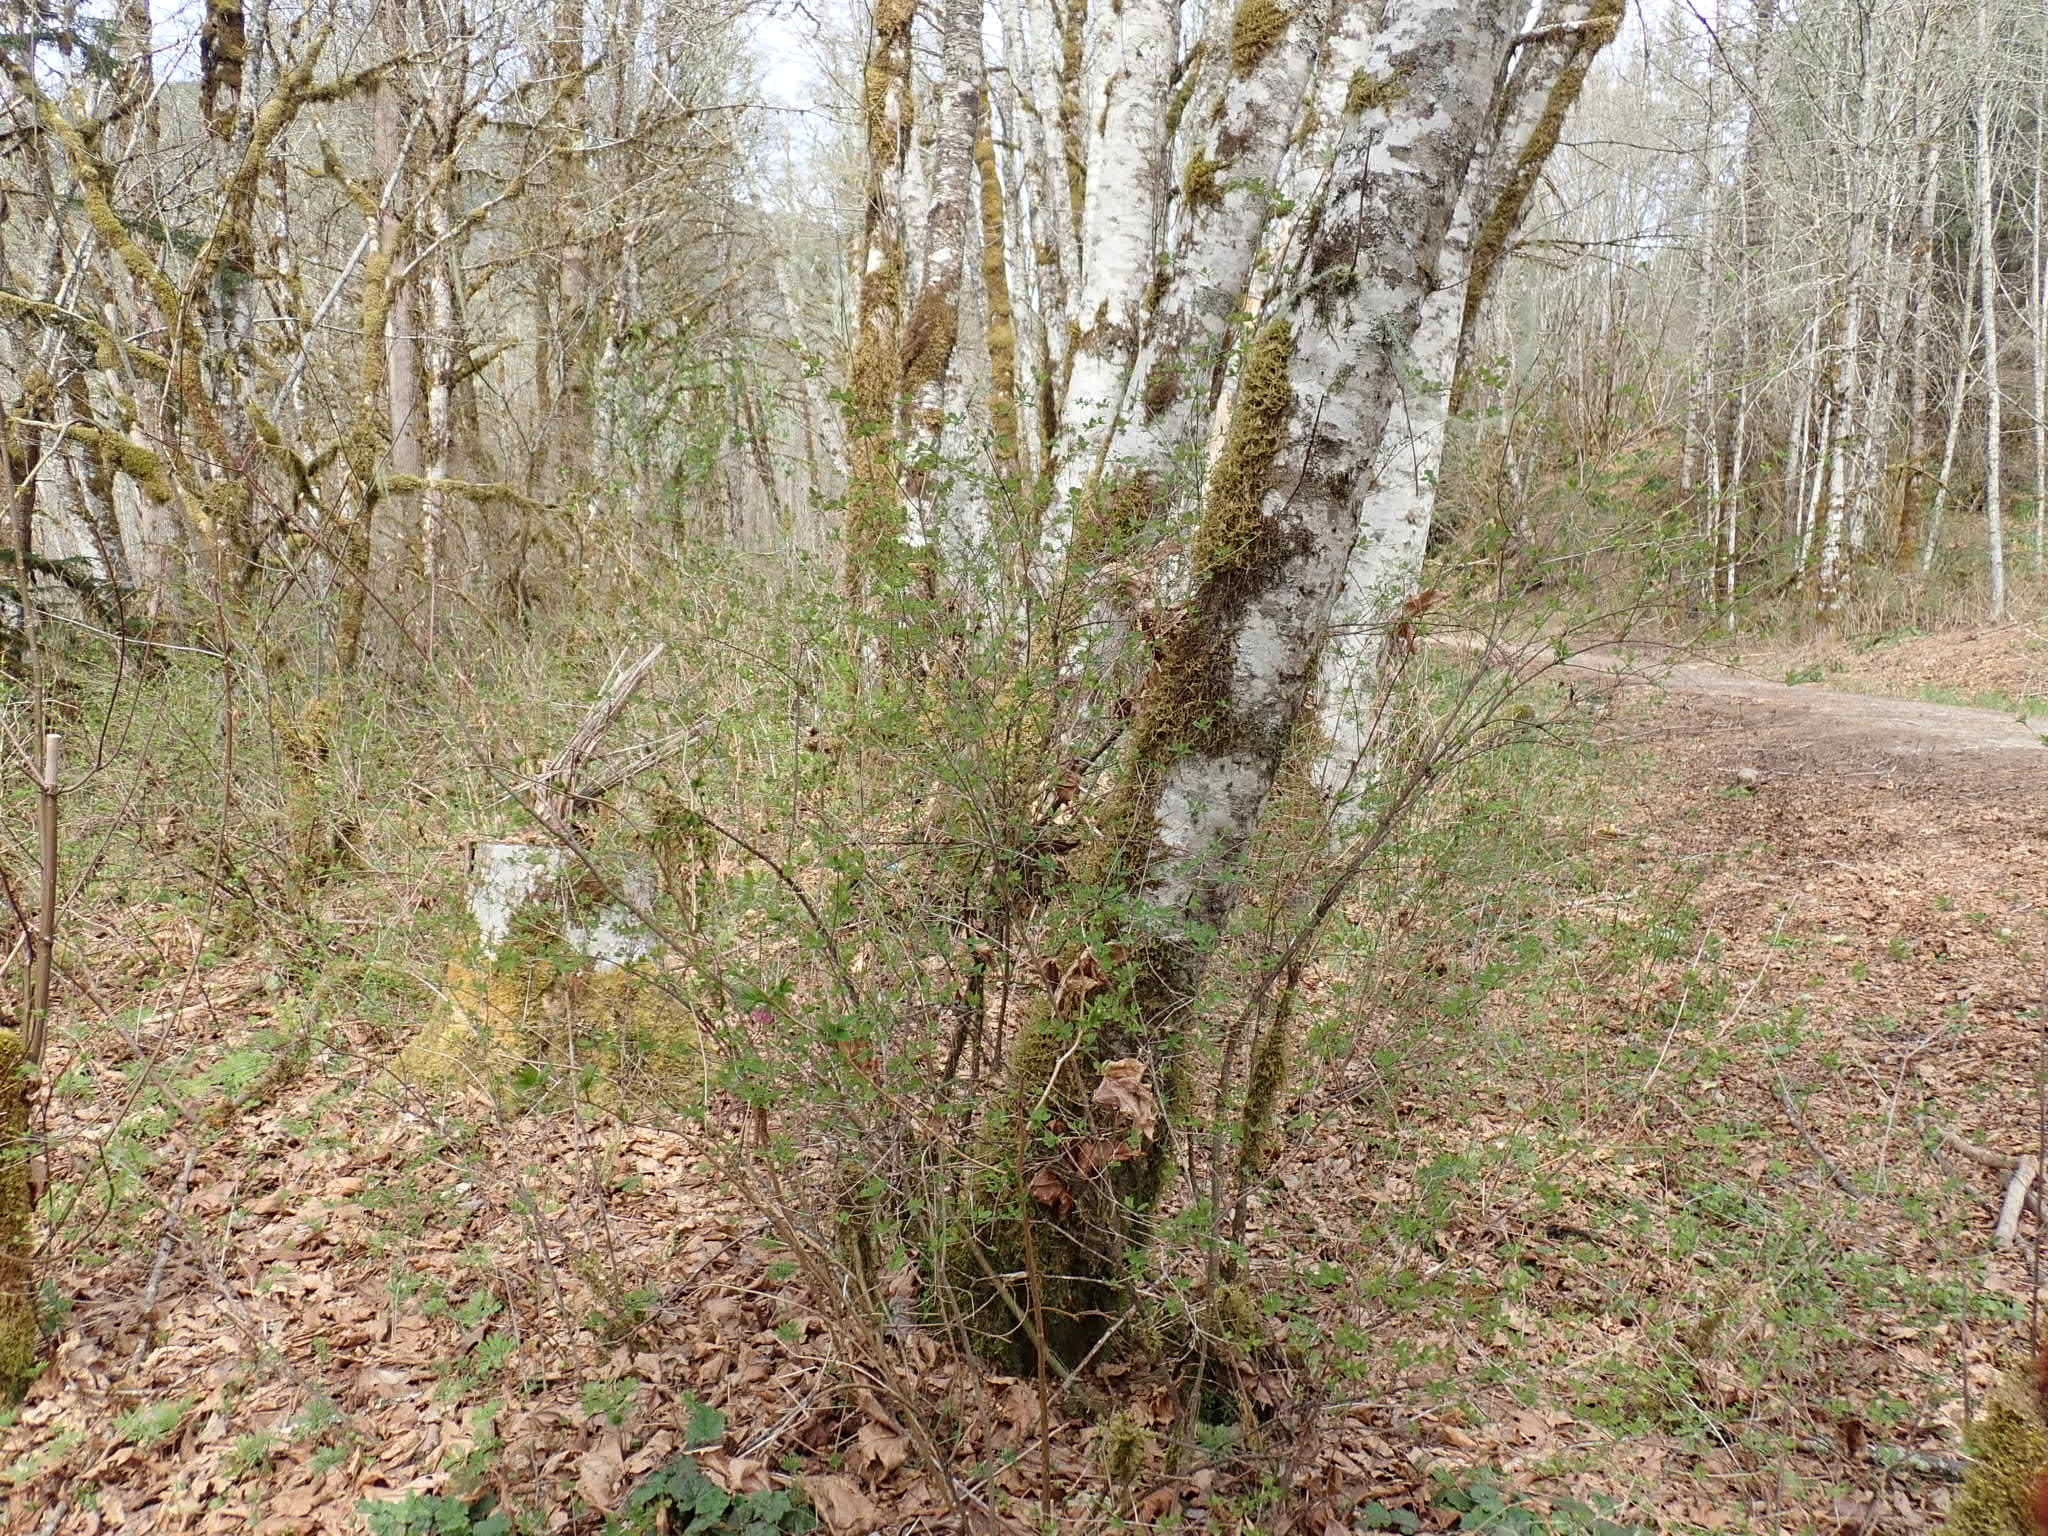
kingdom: Plantae
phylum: Tracheophyta
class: Magnoliopsida
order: Rosales
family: Rosaceae
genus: Rubus
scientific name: Rubus spectabilis
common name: Salmonberry
